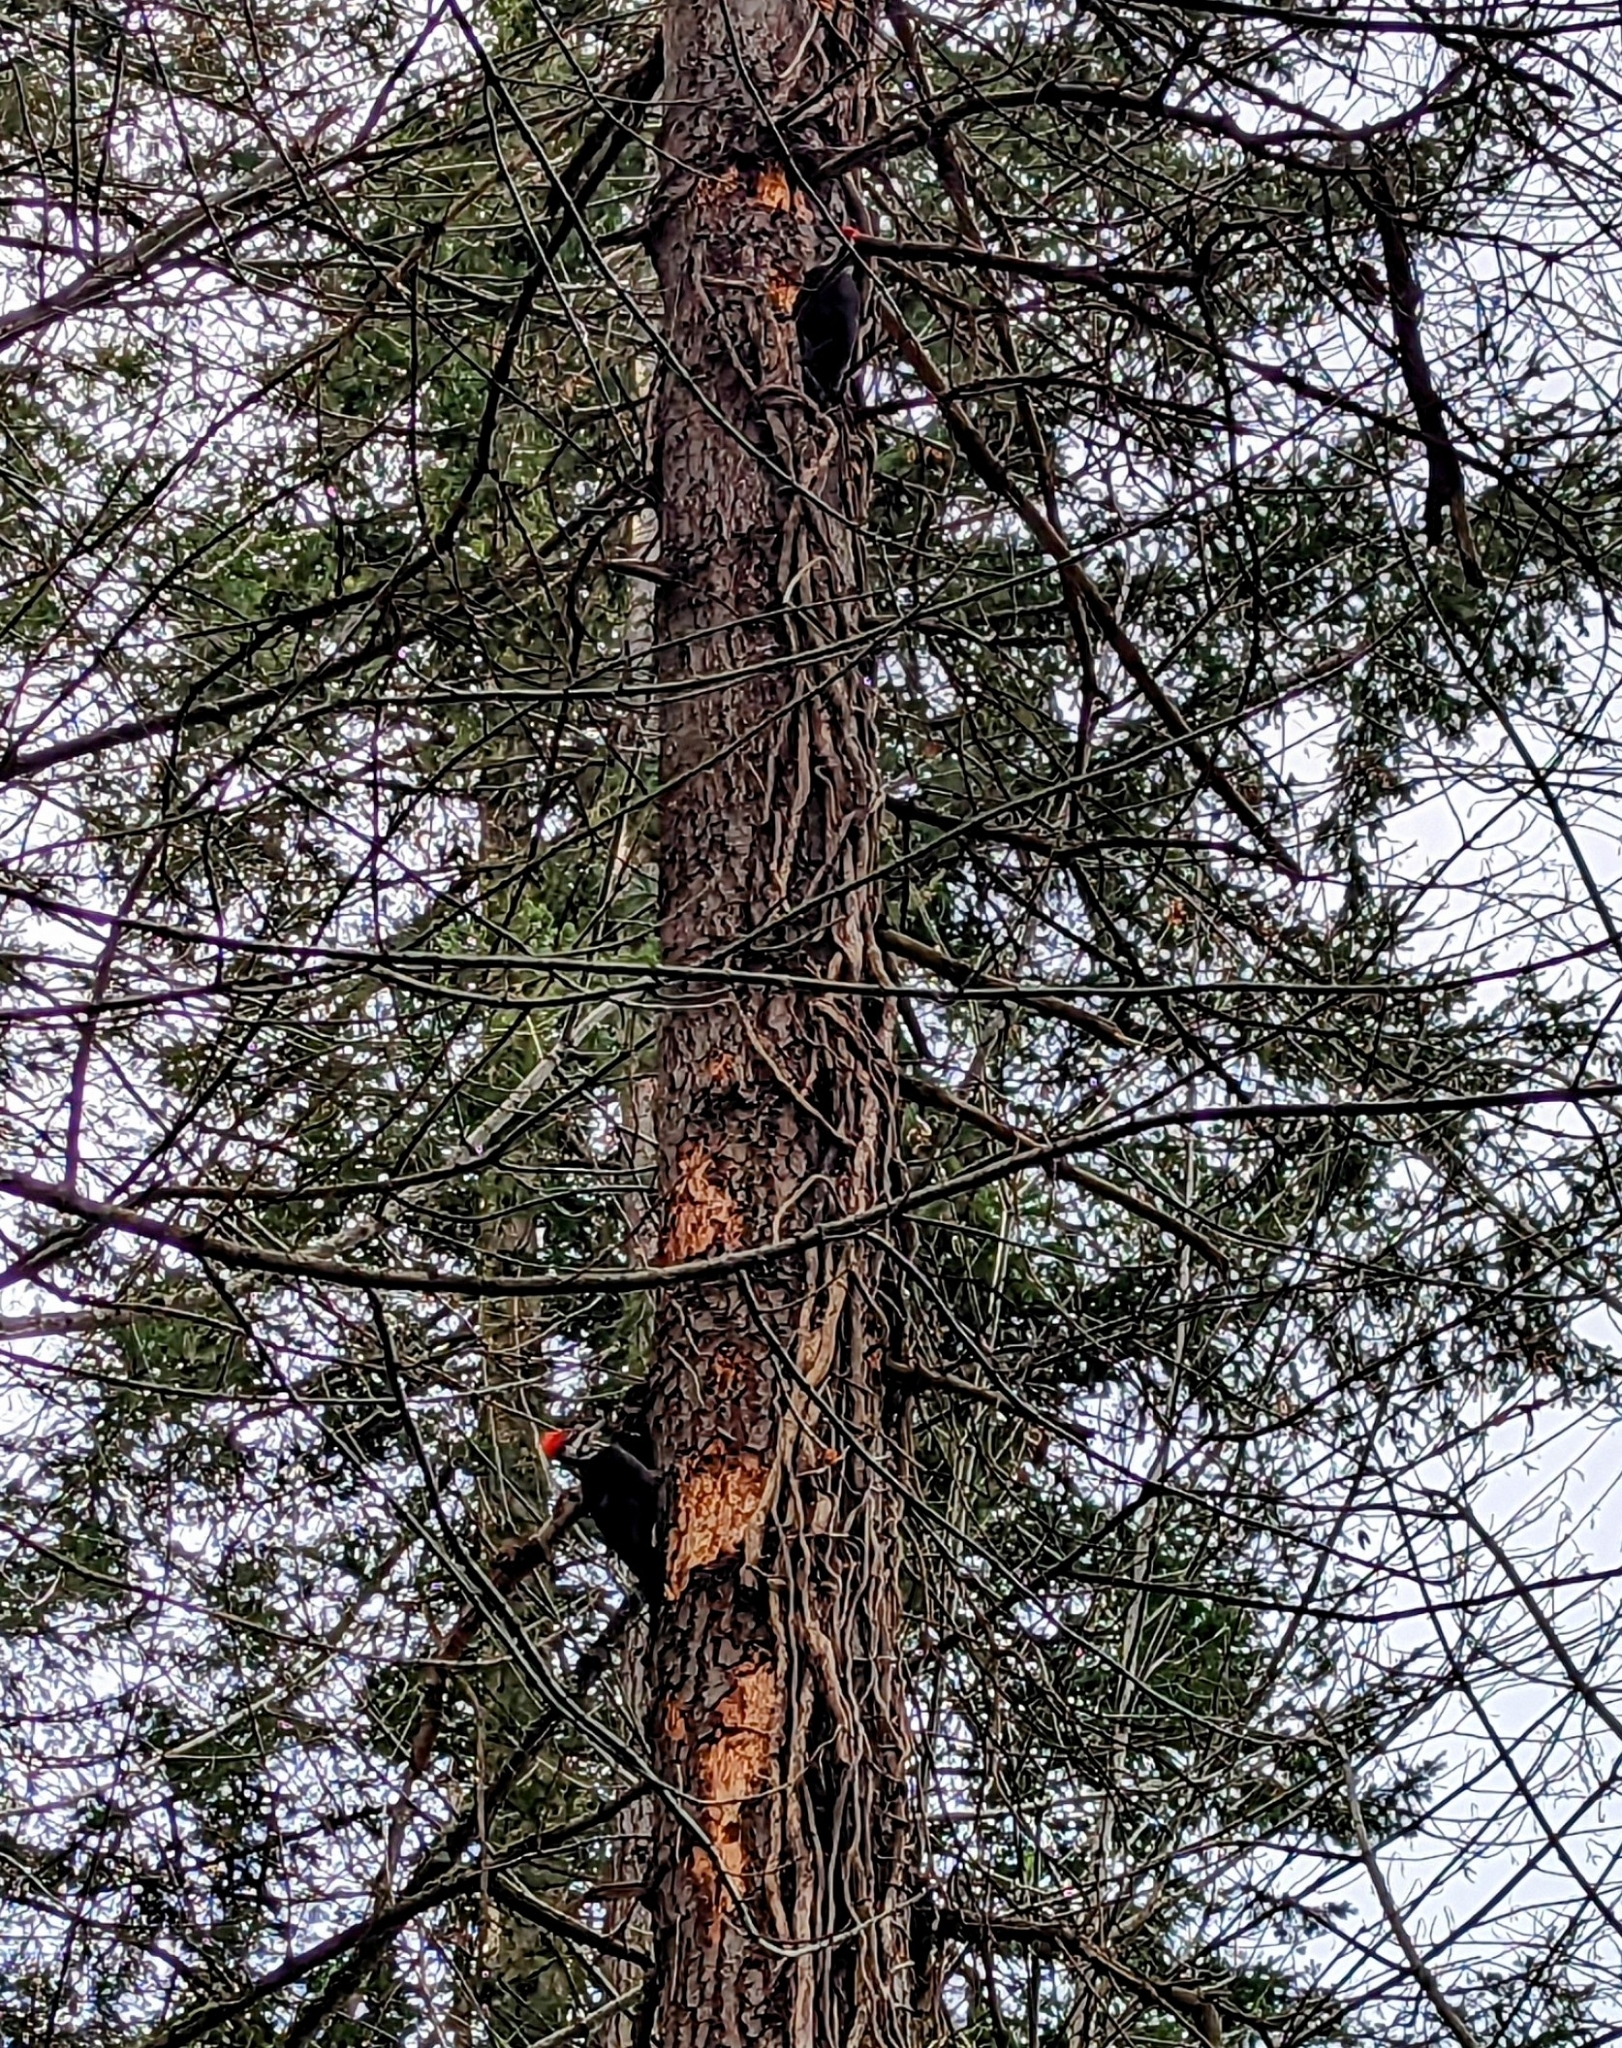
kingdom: Animalia
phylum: Chordata
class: Aves
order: Piciformes
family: Picidae
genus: Dryocopus
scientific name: Dryocopus pileatus
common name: Pileated woodpecker
